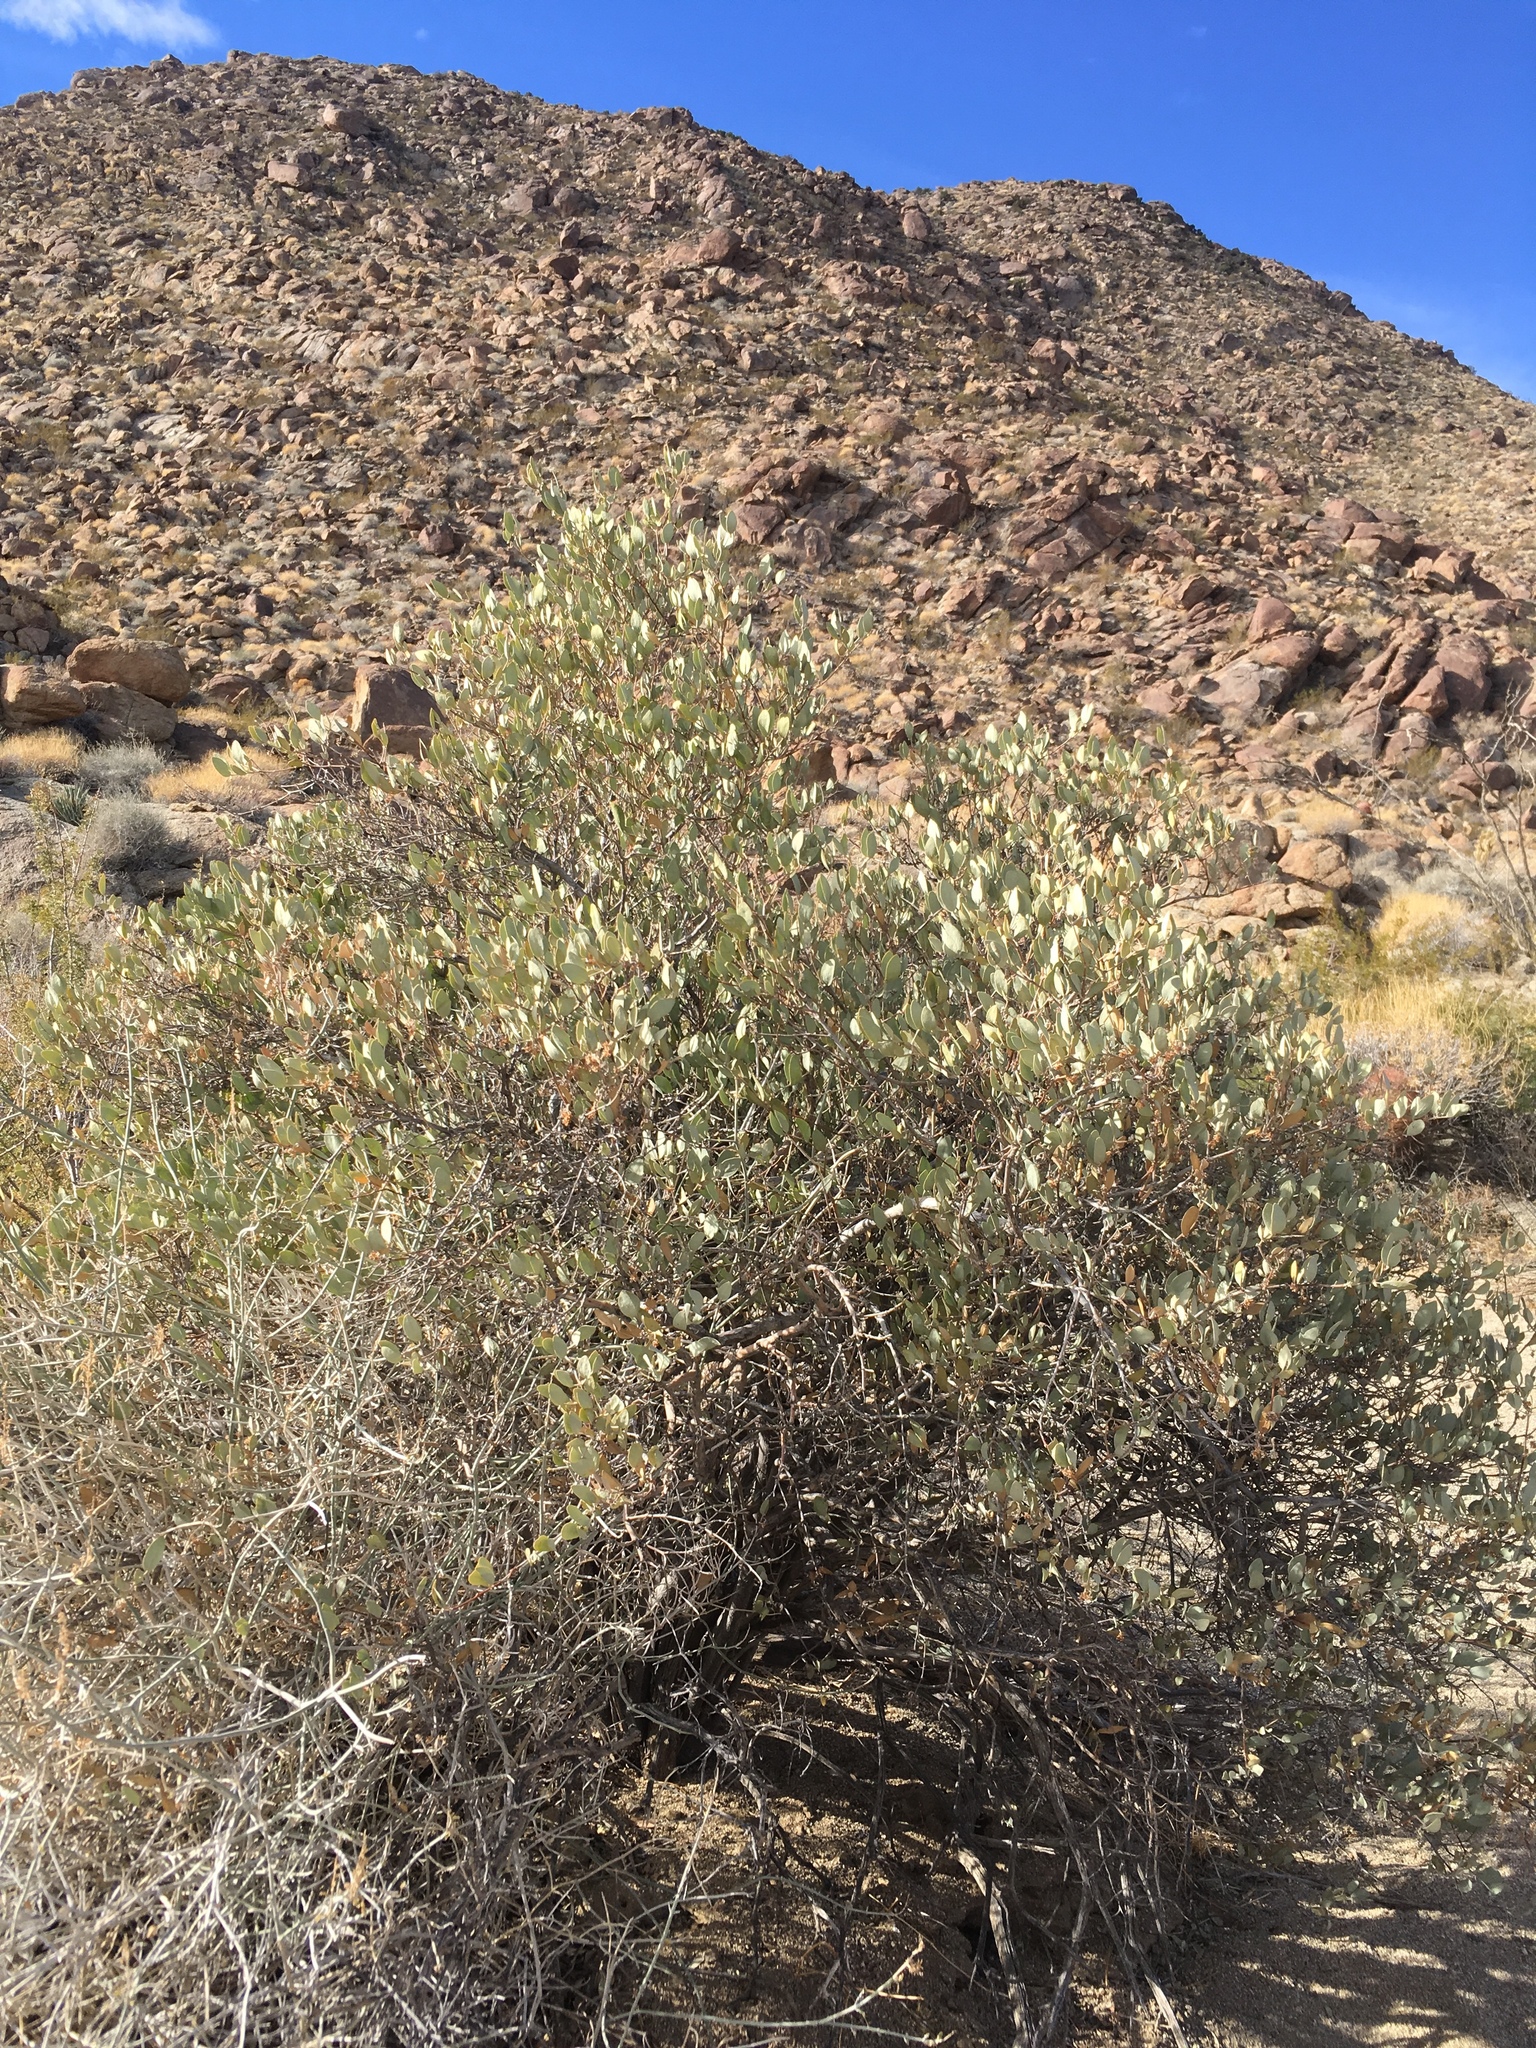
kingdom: Plantae
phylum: Tracheophyta
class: Magnoliopsida
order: Caryophyllales
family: Simmondsiaceae
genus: Simmondsia
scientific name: Simmondsia chinensis
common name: Jojoba
